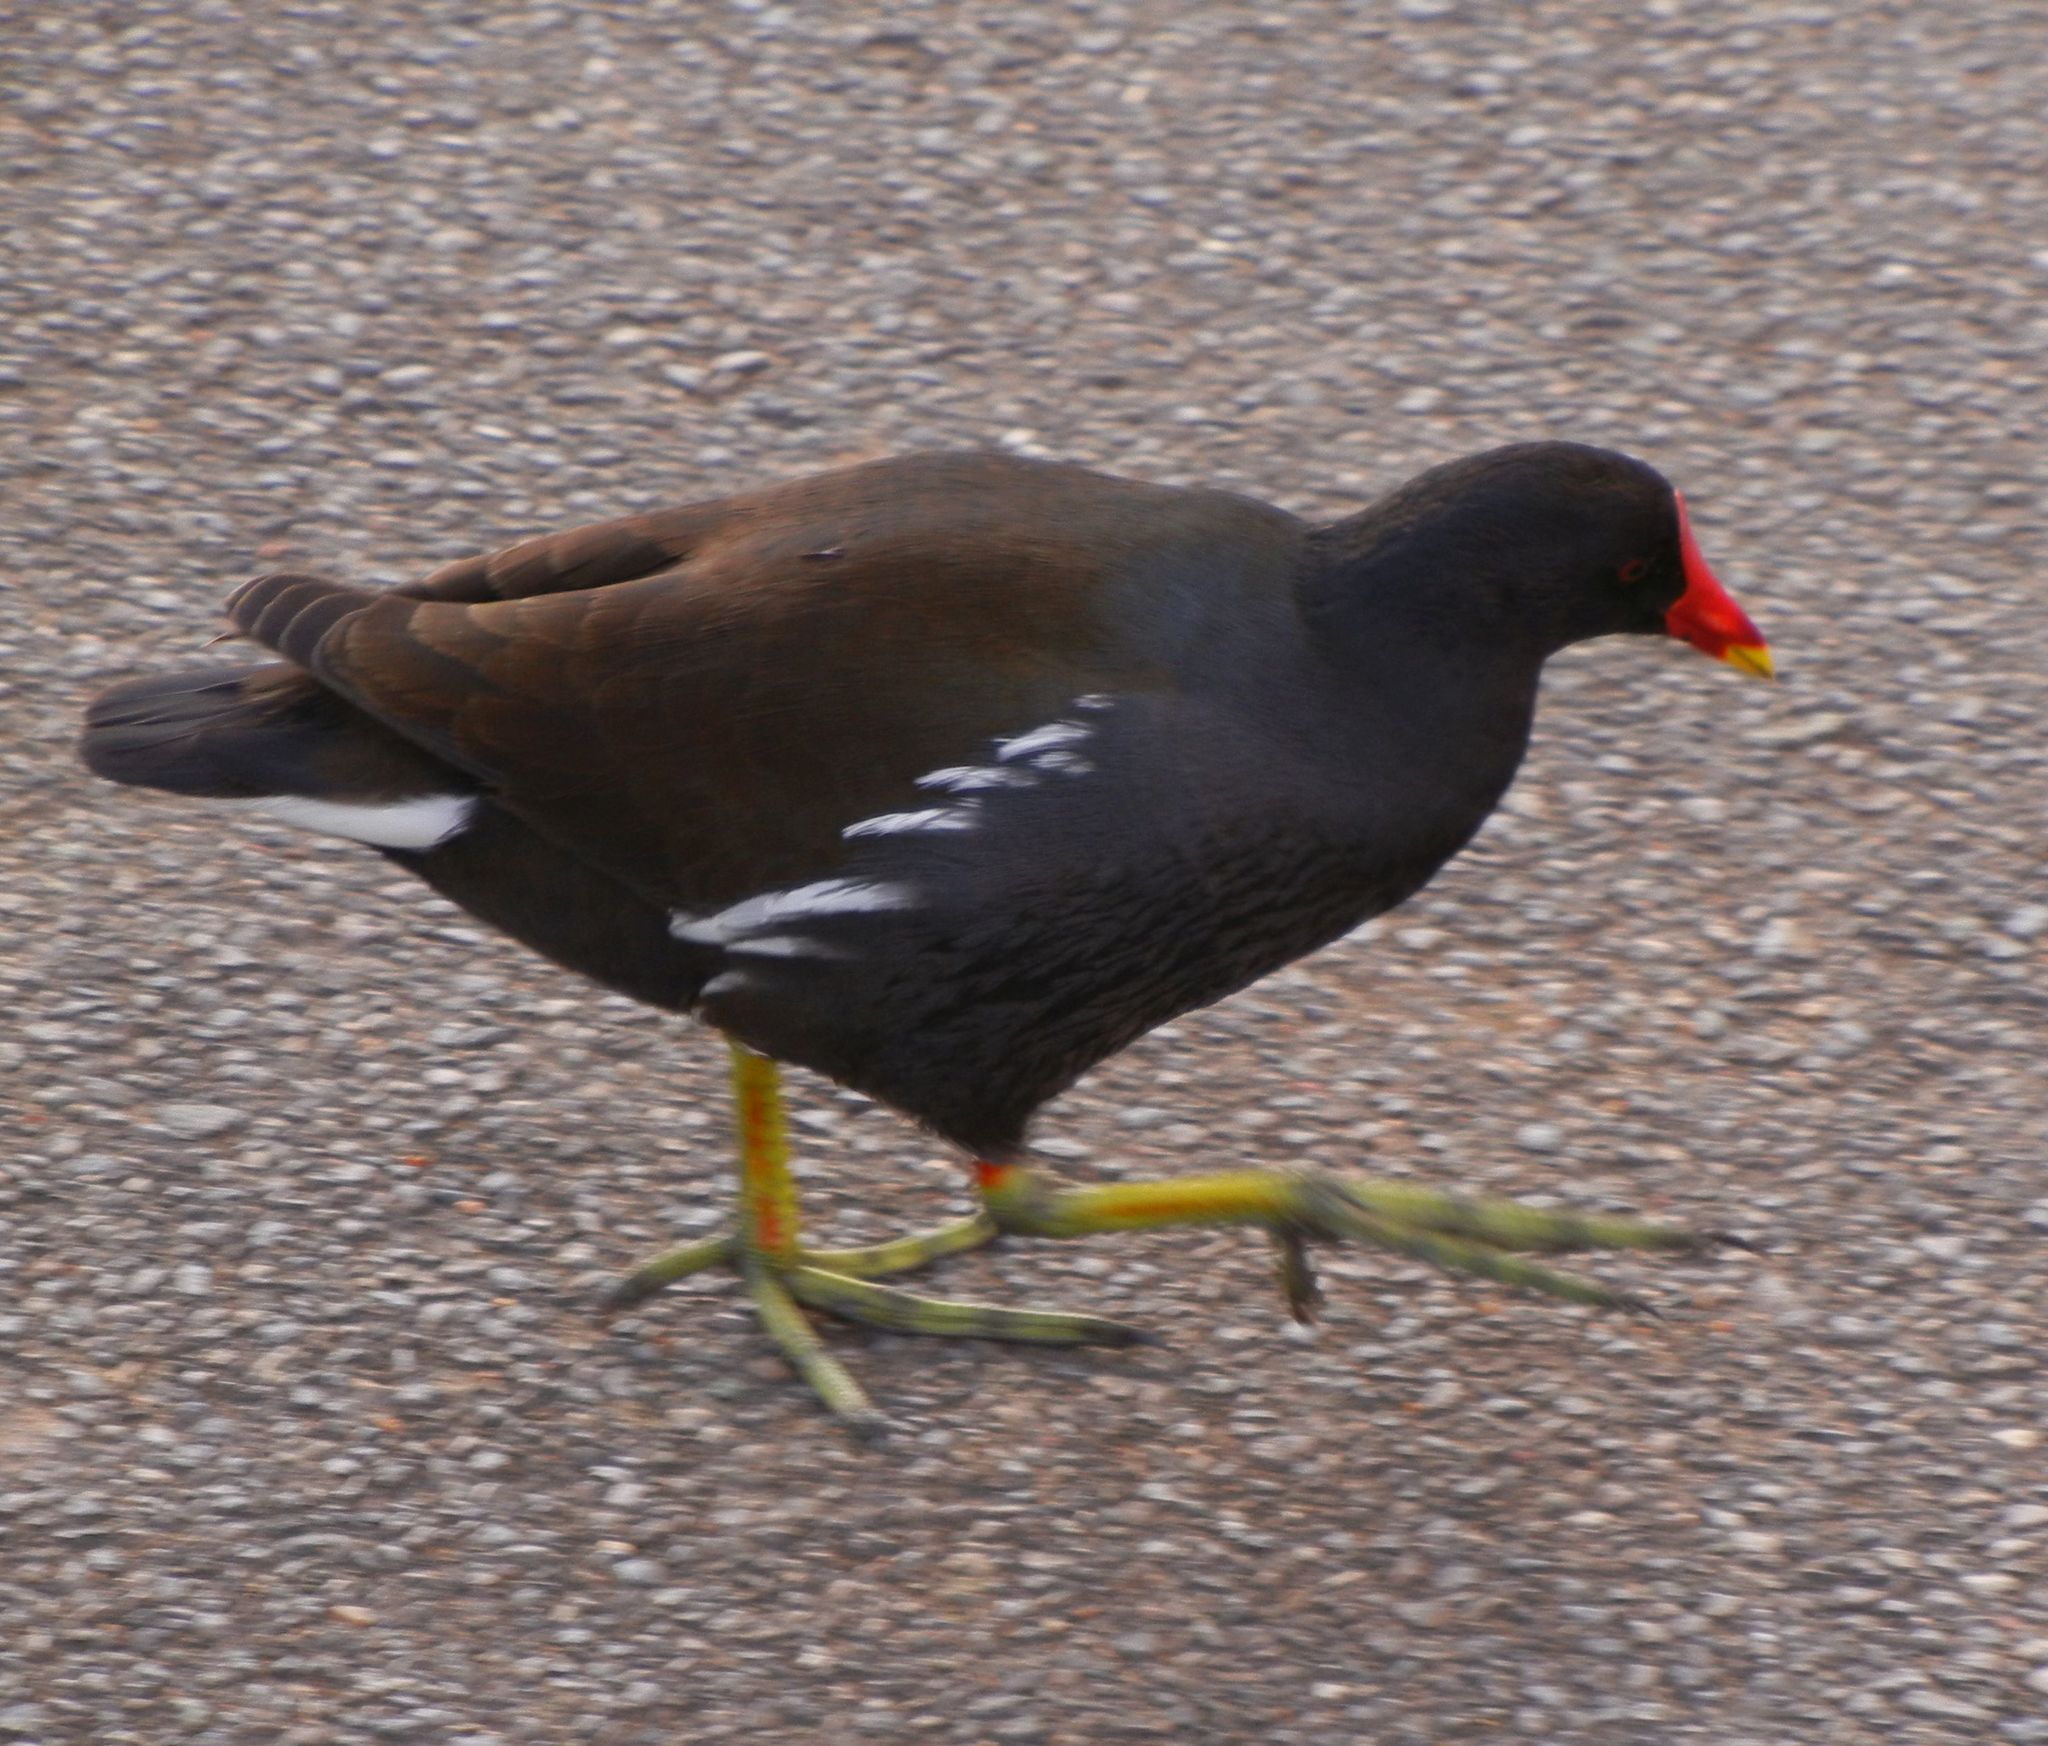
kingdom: Animalia
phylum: Chordata
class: Aves
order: Gruiformes
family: Rallidae
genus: Gallinula
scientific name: Gallinula chloropus
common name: Common moorhen
